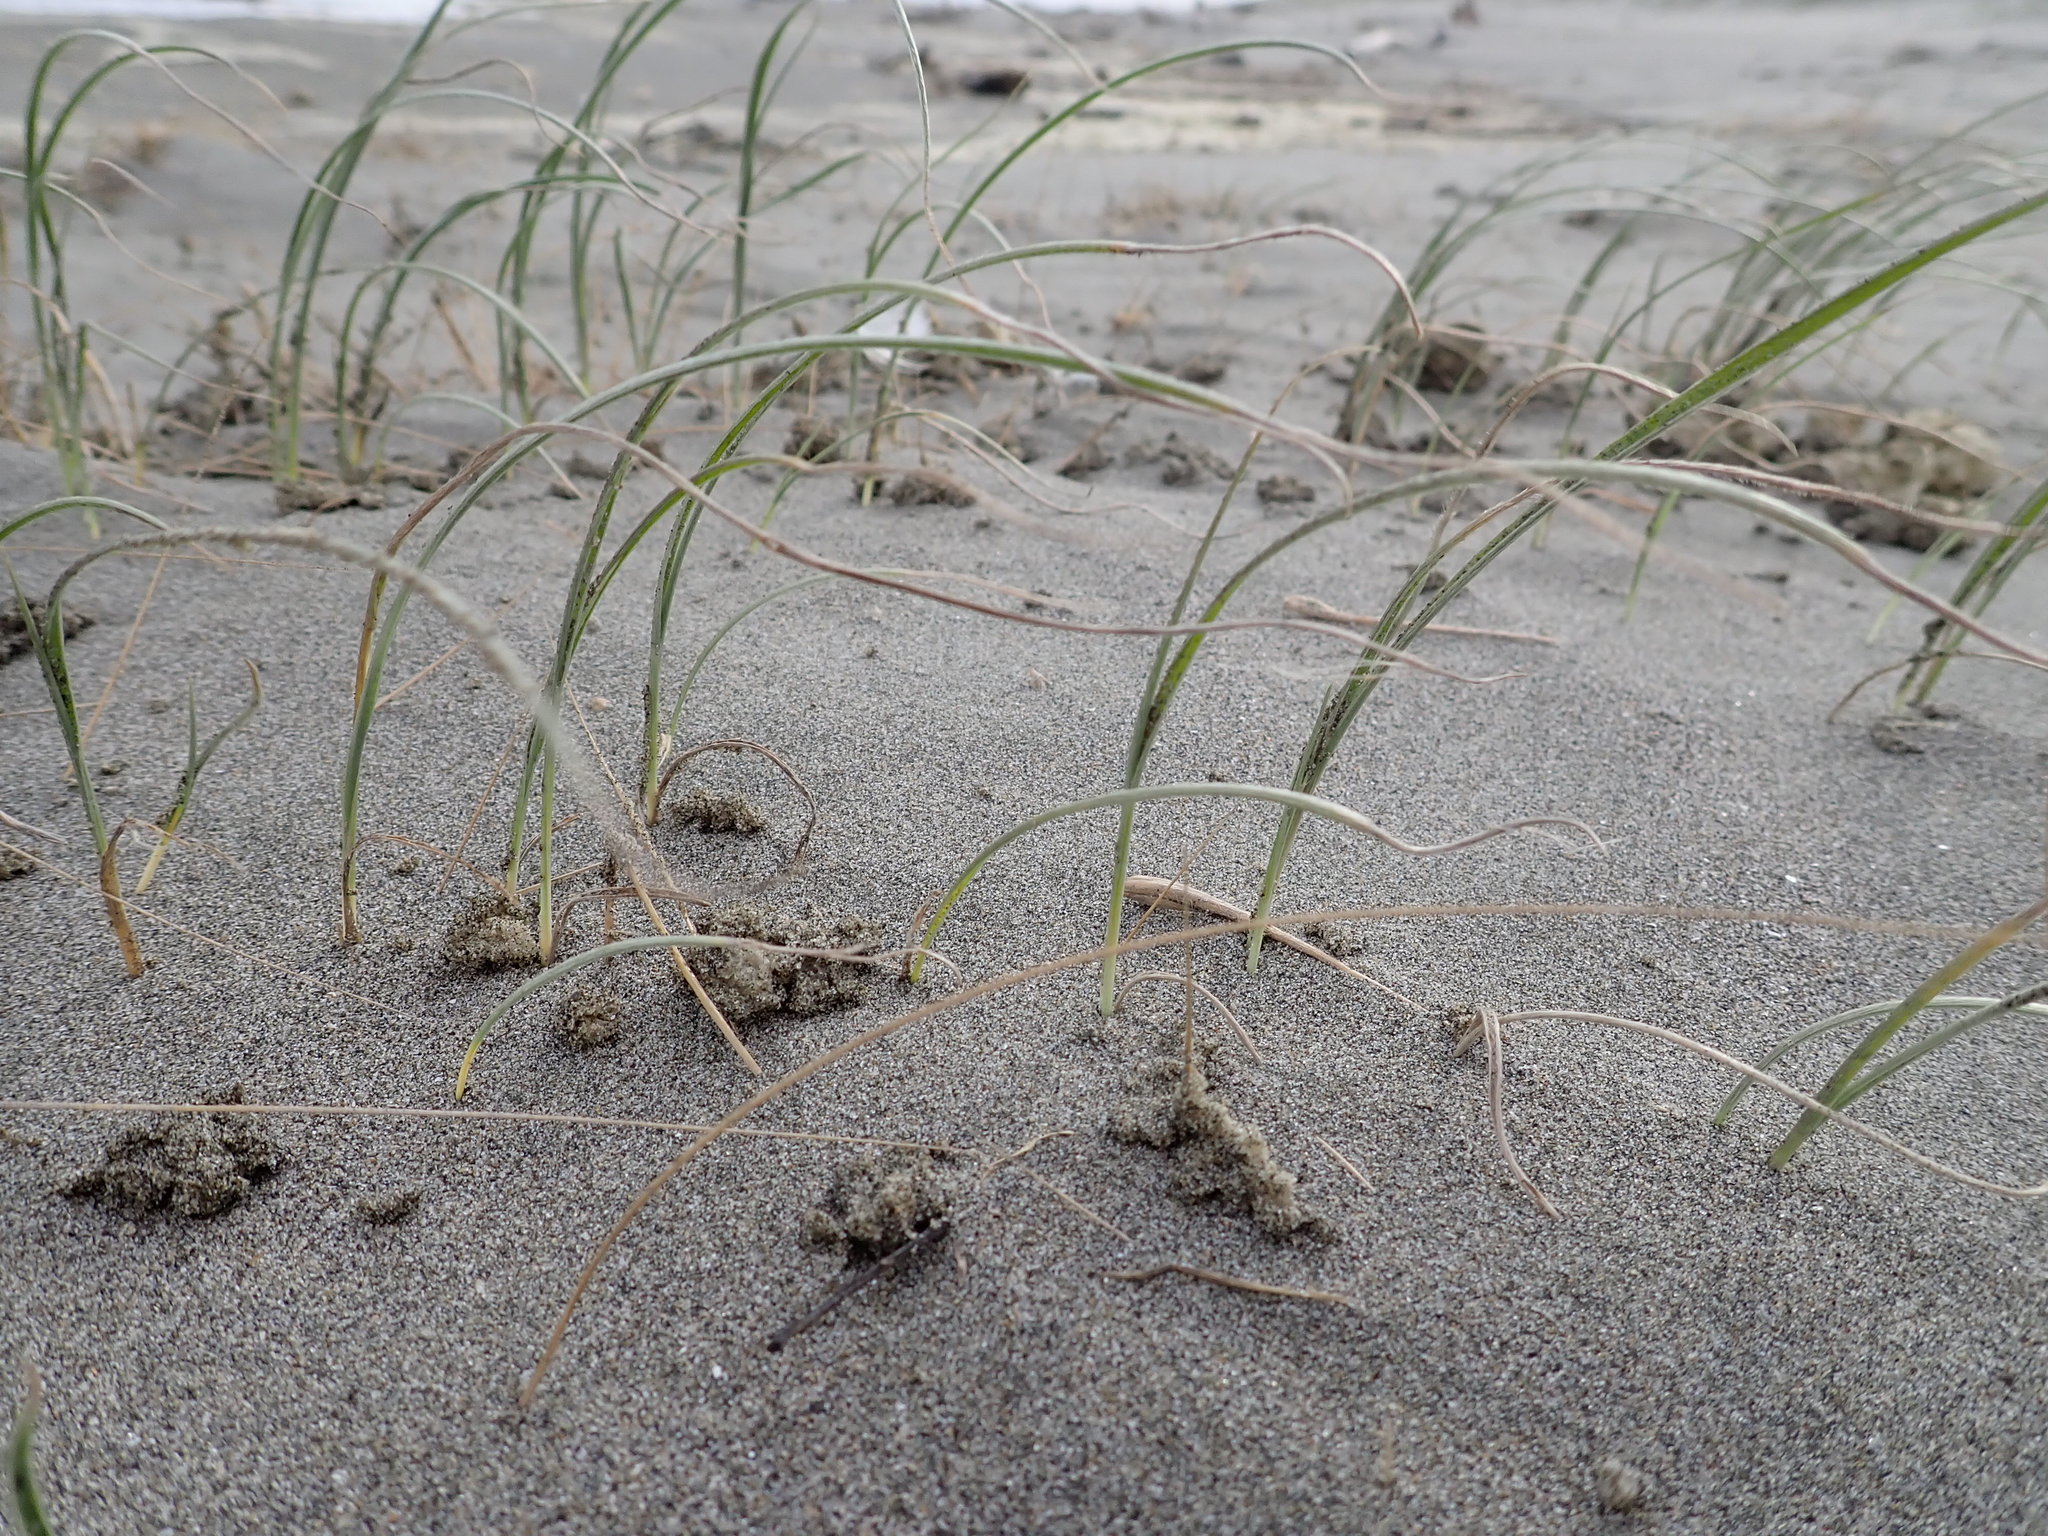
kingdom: Plantae
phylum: Tracheophyta
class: Liliopsida
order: Poales
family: Poaceae
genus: Spinifex
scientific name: Spinifex sericeus
